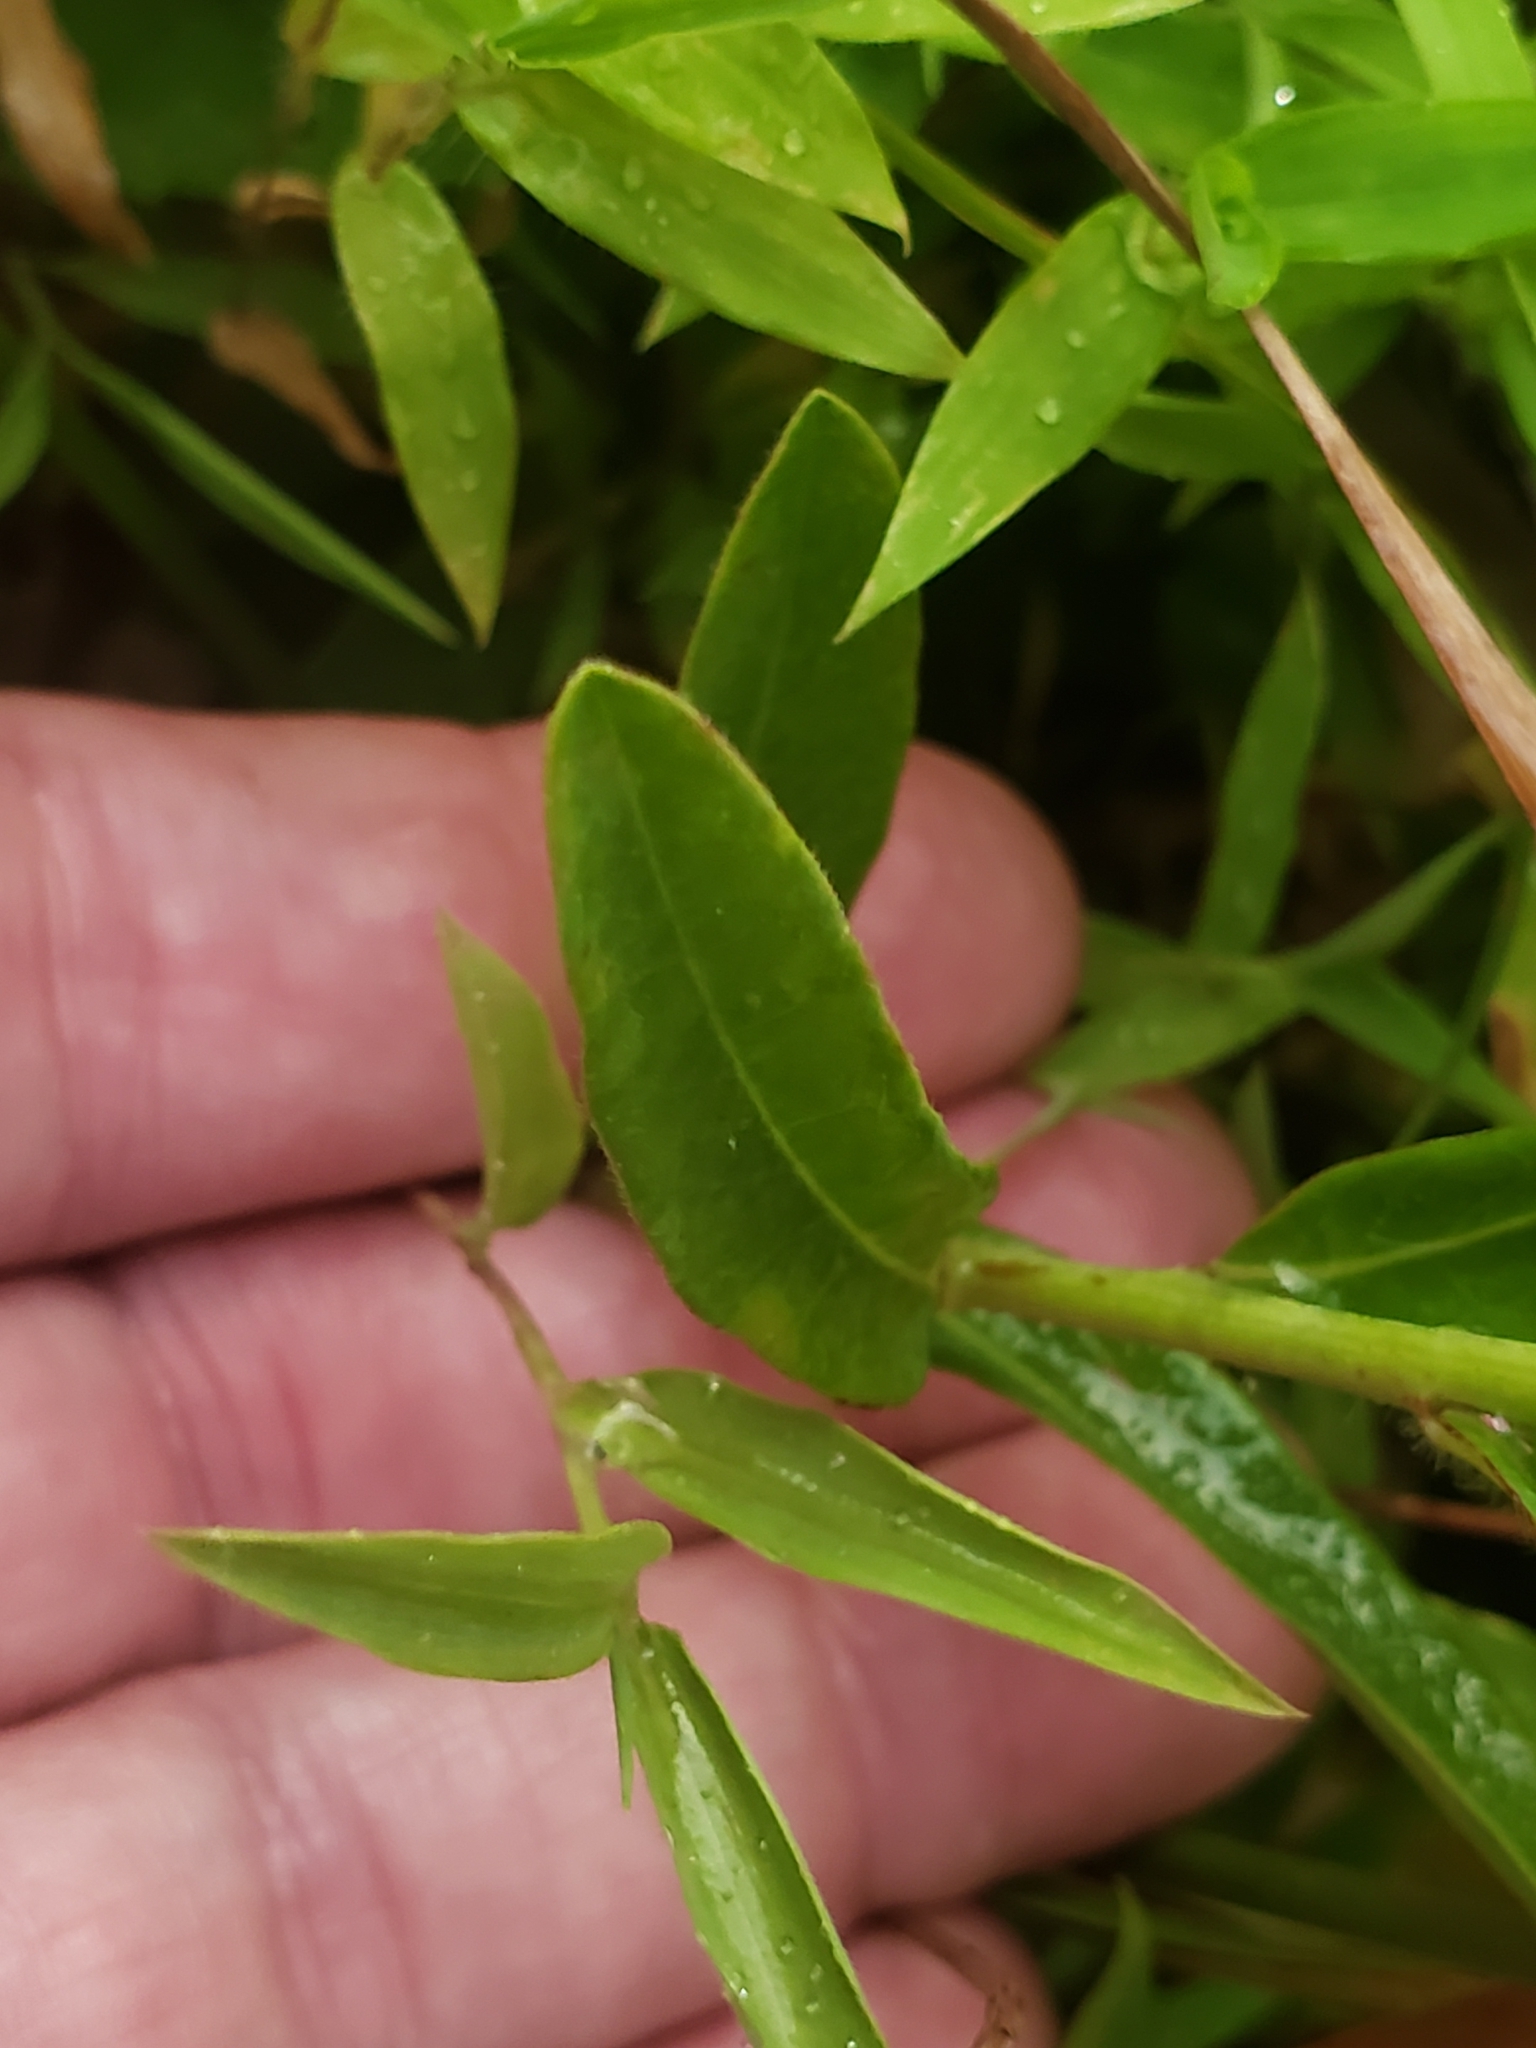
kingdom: Plantae
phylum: Tracheophyta
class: Magnoliopsida
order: Malpighiales
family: Euphorbiaceae
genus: Euphorbia
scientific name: Euphorbia corollata
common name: Flowering spurge
